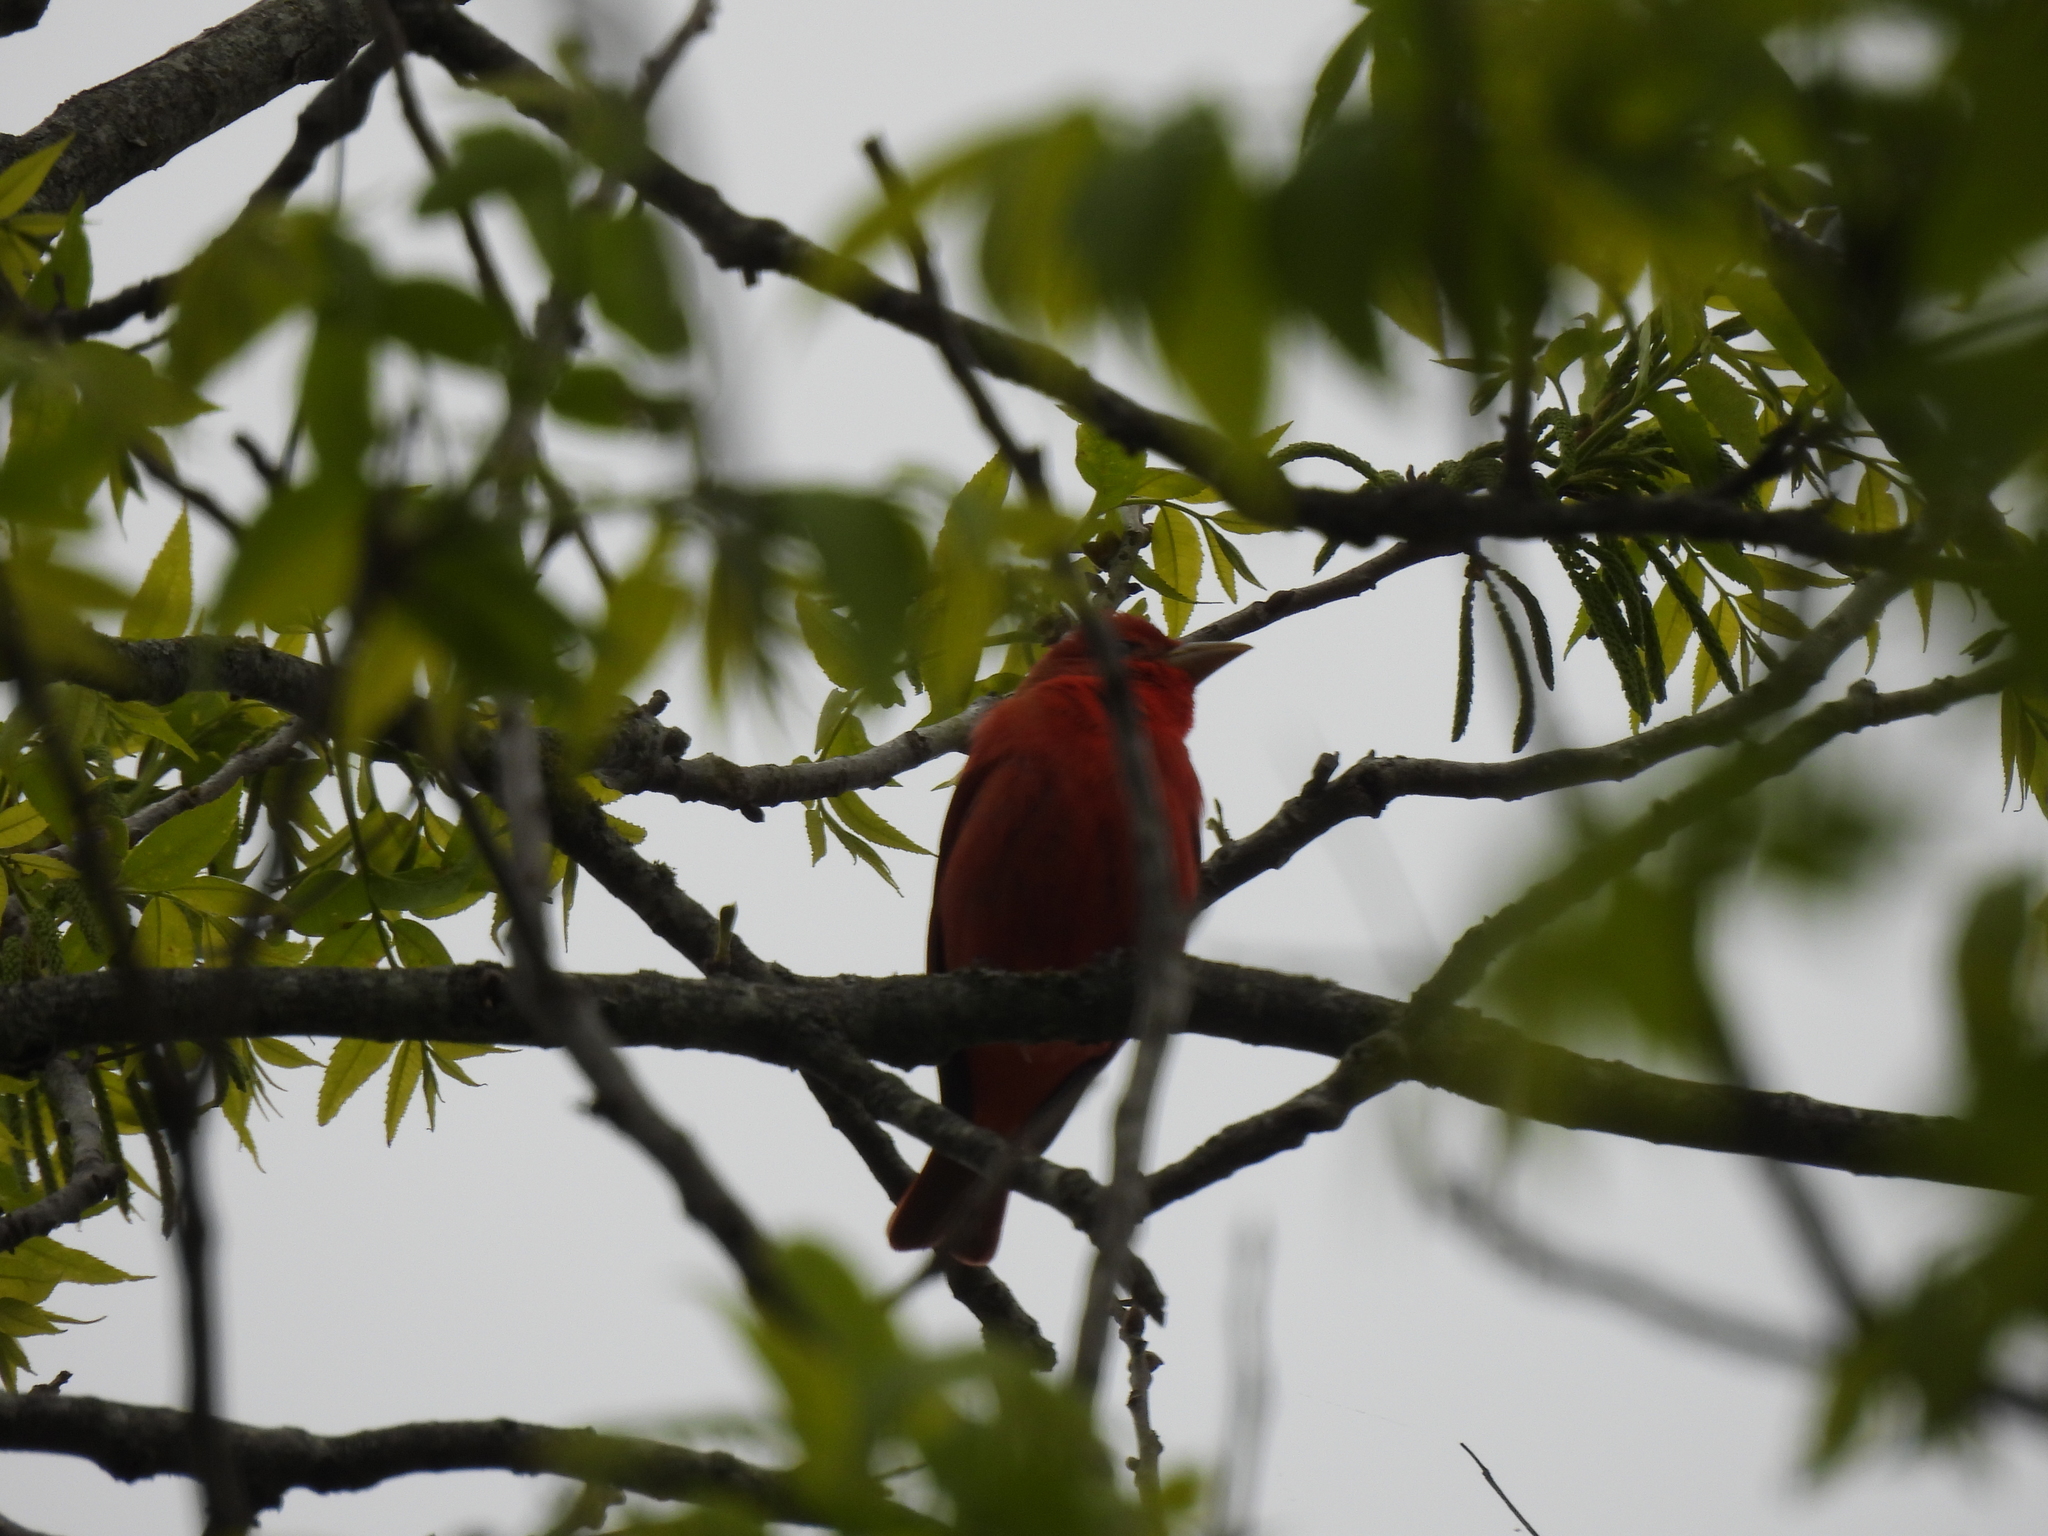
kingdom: Animalia
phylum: Chordata
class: Aves
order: Passeriformes
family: Cardinalidae
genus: Piranga
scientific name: Piranga rubra
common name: Summer tanager
